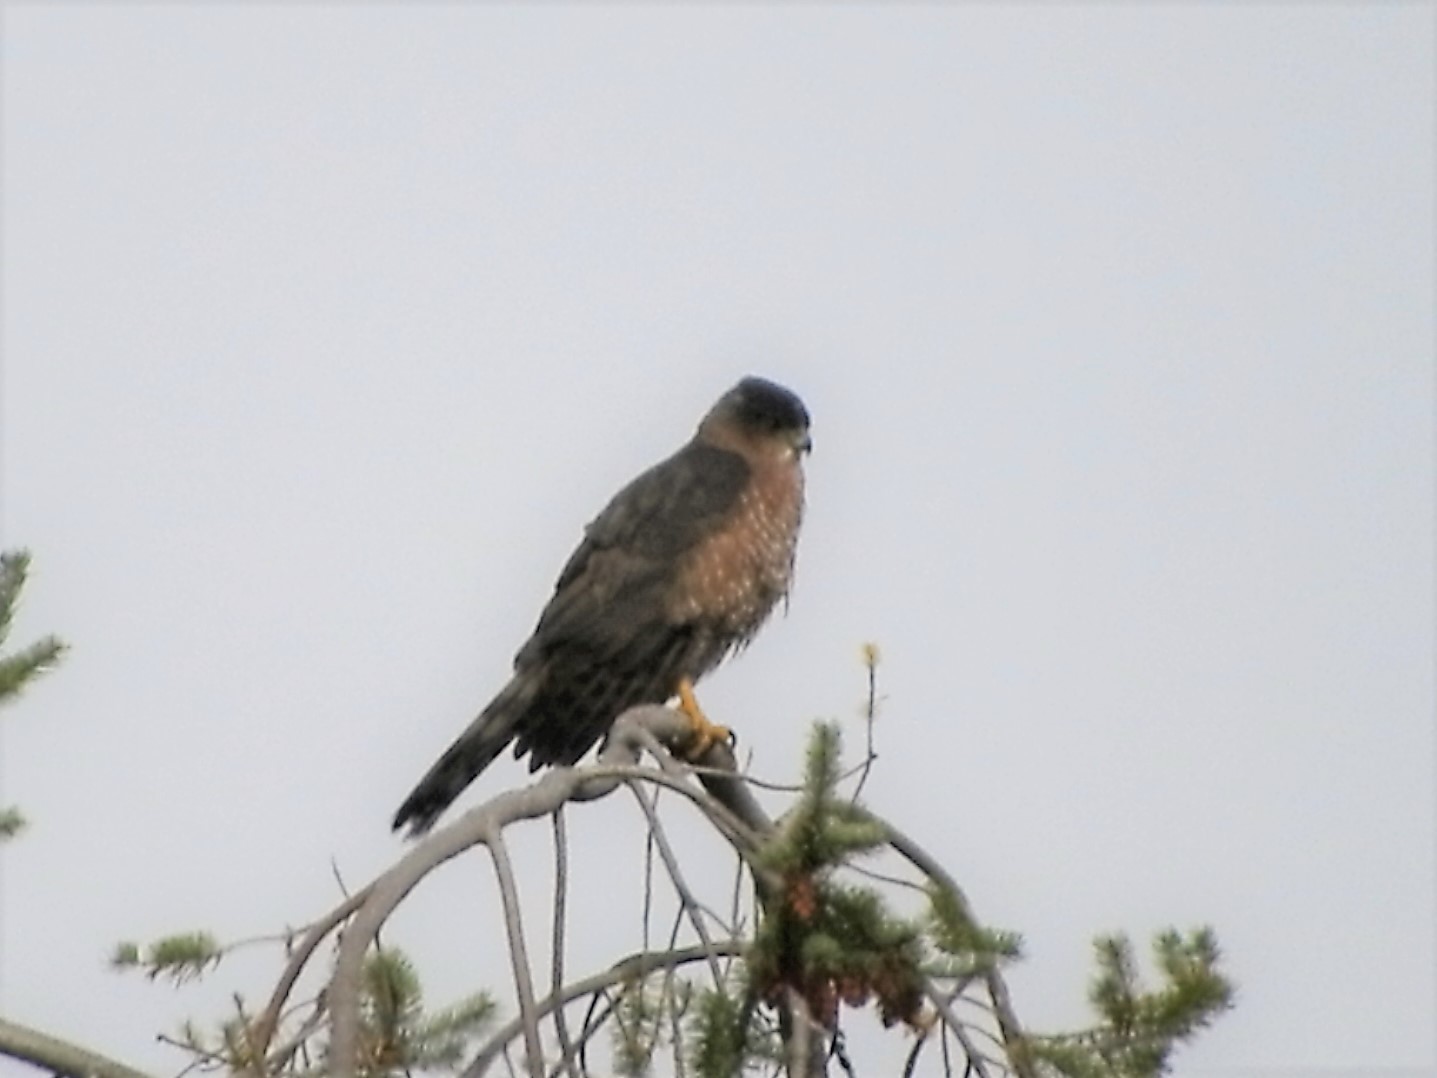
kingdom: Animalia
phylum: Chordata
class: Aves
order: Accipitriformes
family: Accipitridae
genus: Accipiter
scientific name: Accipiter cooperii
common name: Cooper's hawk
